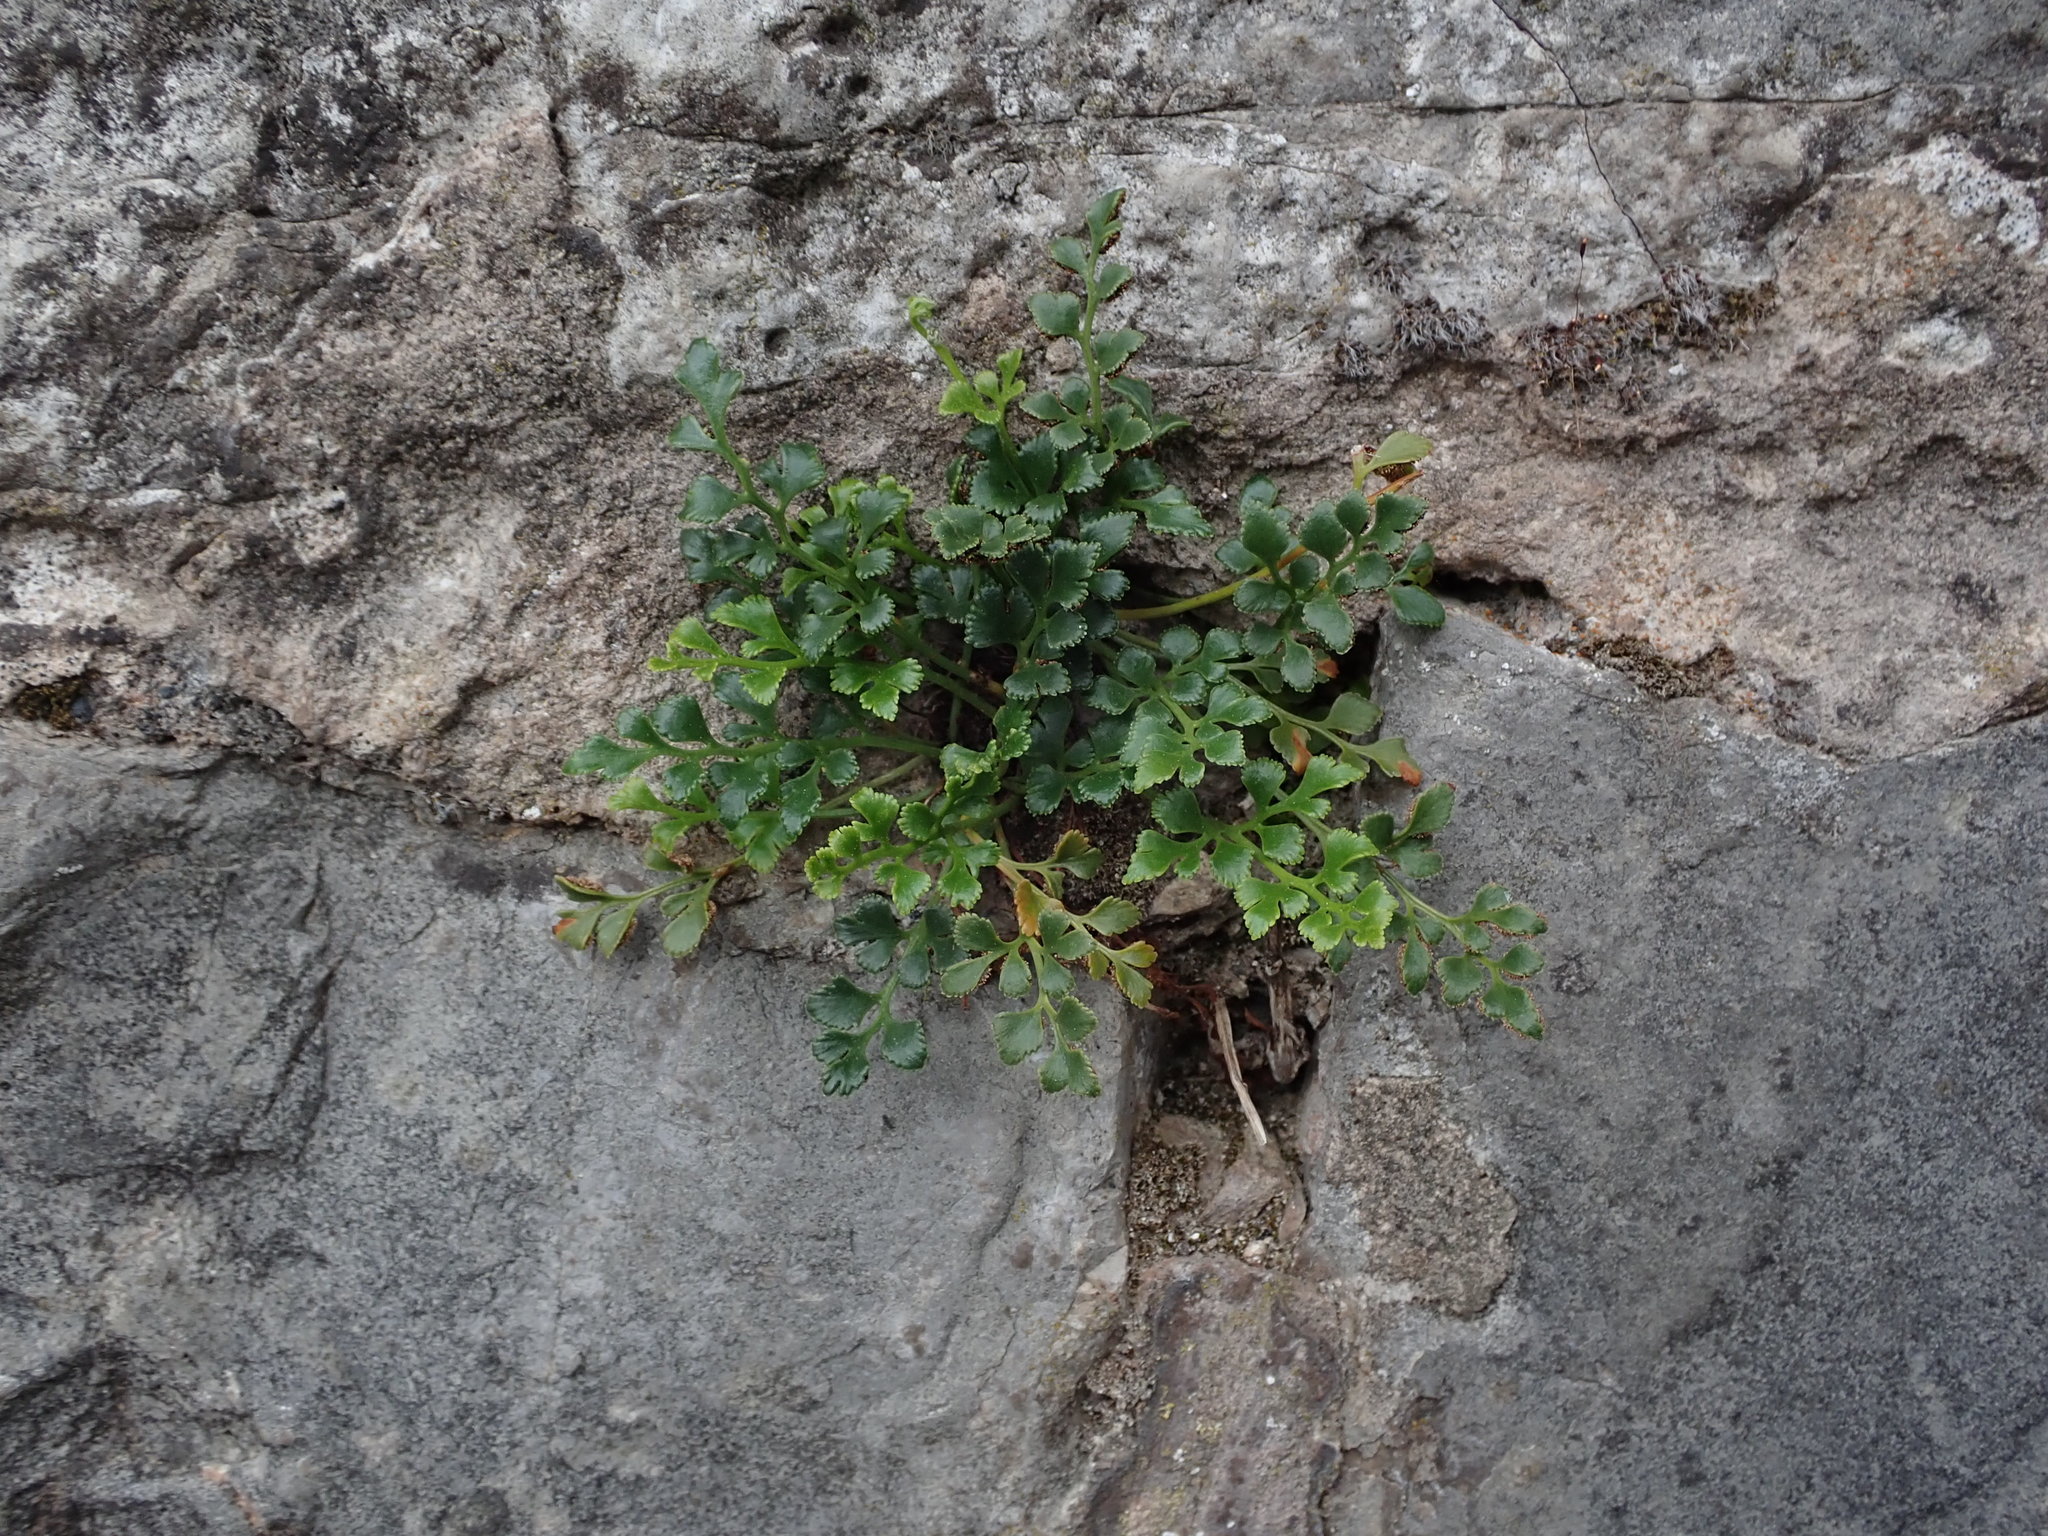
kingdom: Plantae
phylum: Tracheophyta
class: Polypodiopsida
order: Polypodiales
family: Aspleniaceae
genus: Asplenium
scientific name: Asplenium ruta-muraria
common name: Wall-rue
